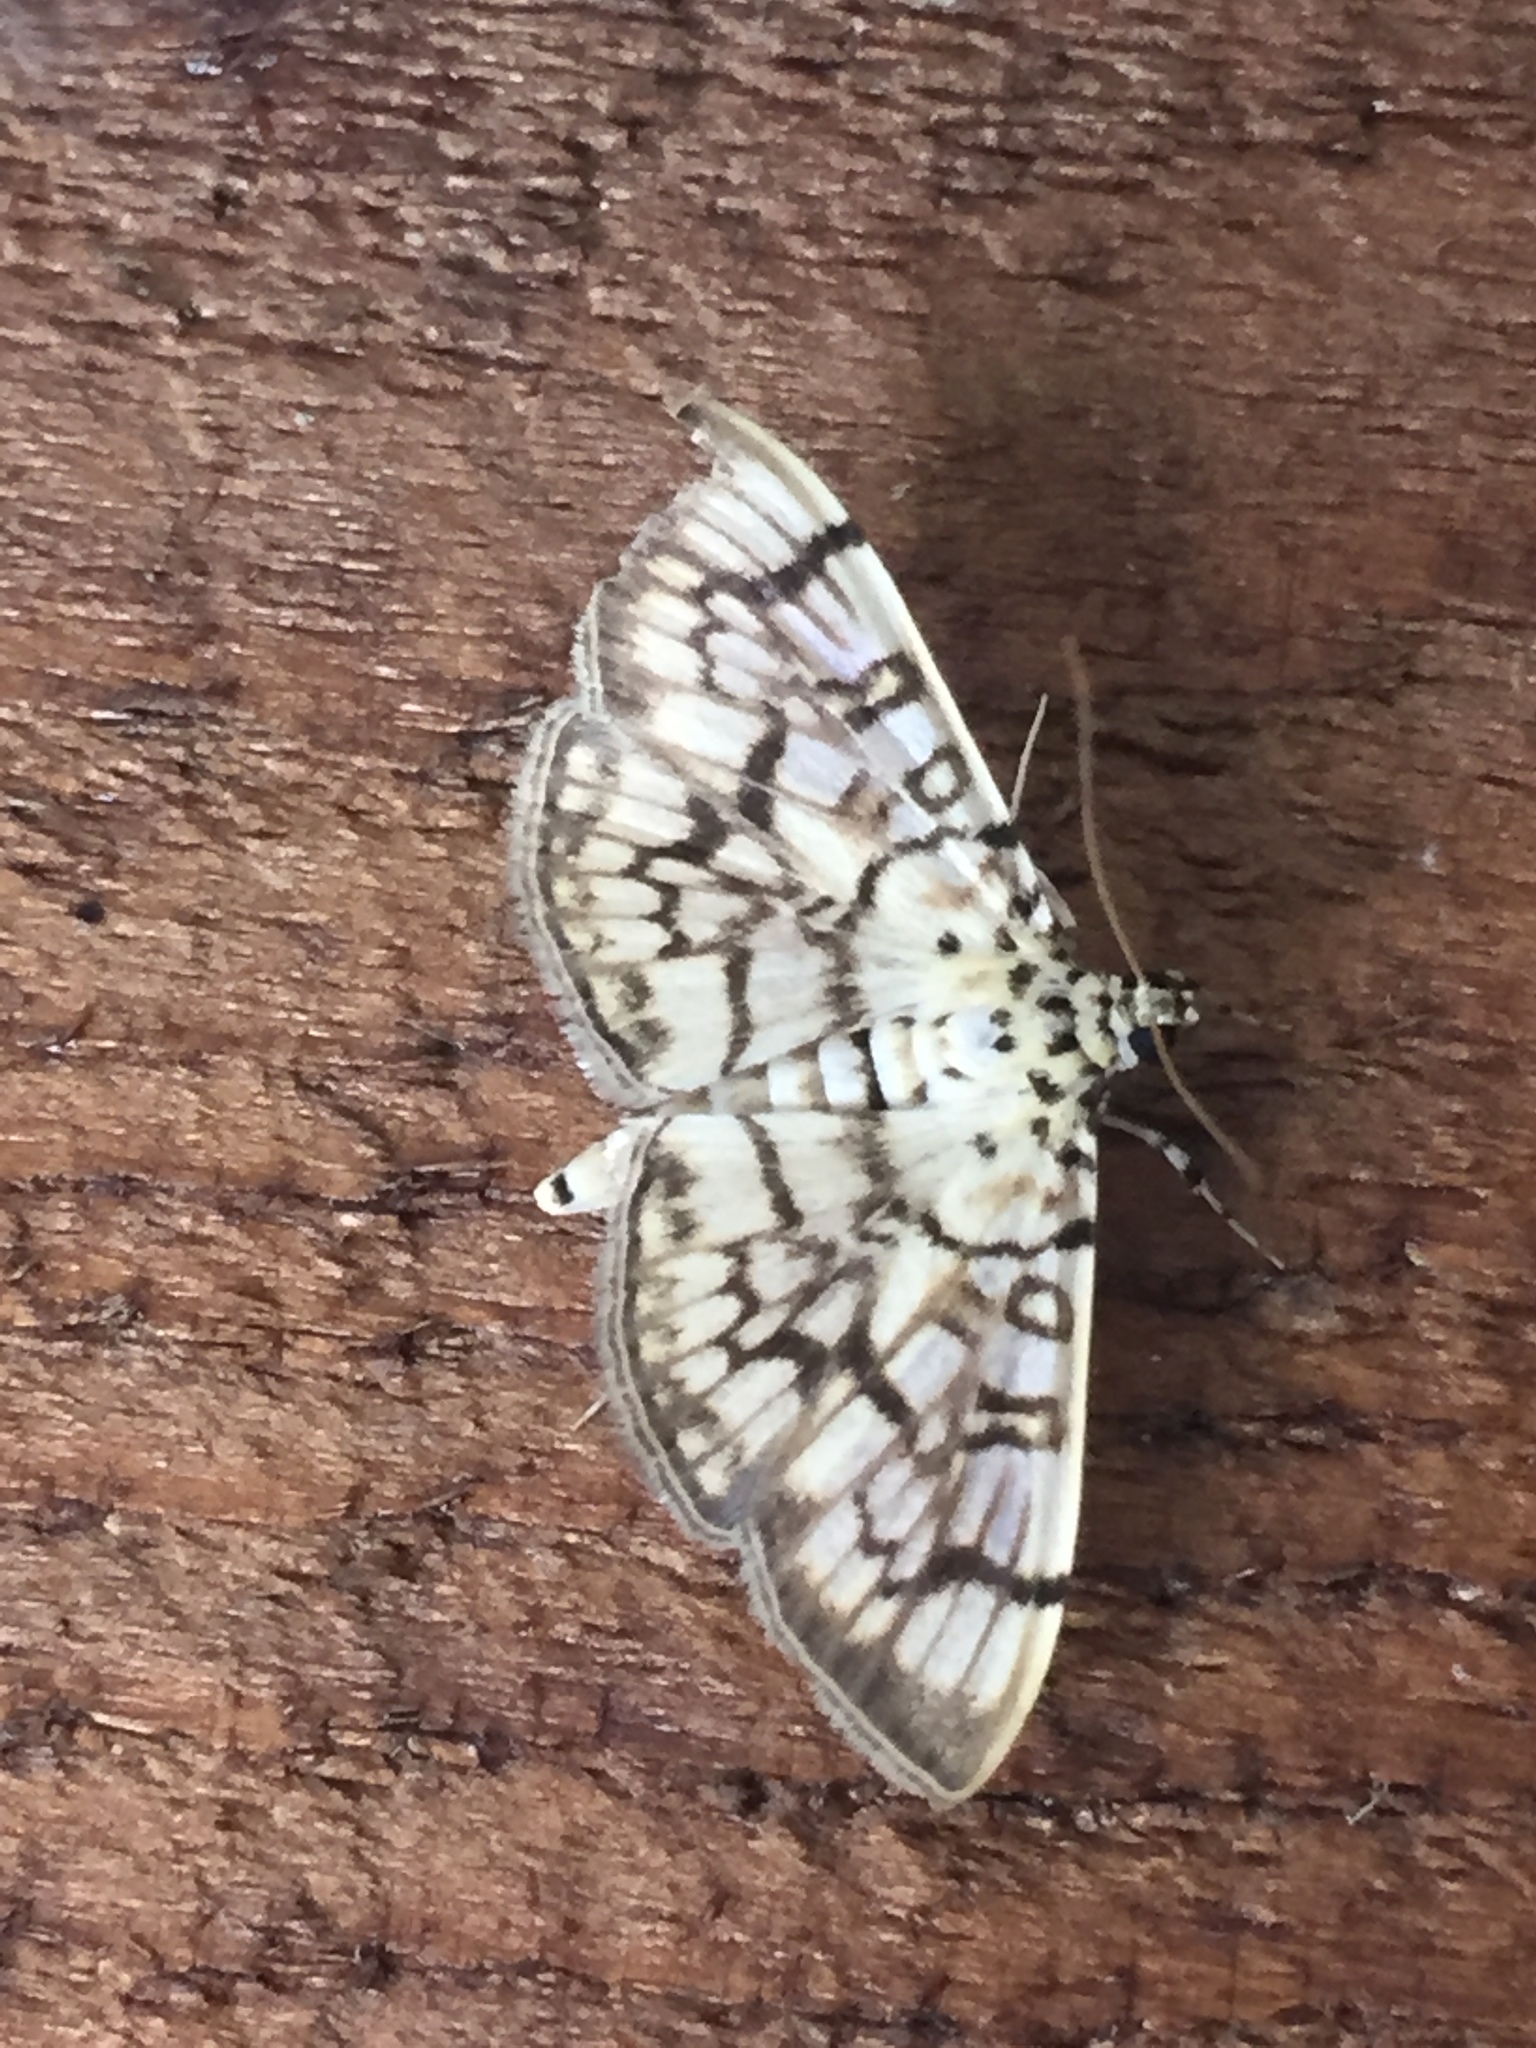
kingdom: Animalia
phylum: Arthropoda
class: Insecta
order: Lepidoptera
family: Crambidae
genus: Haritalodes
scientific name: Haritalodes derogata
